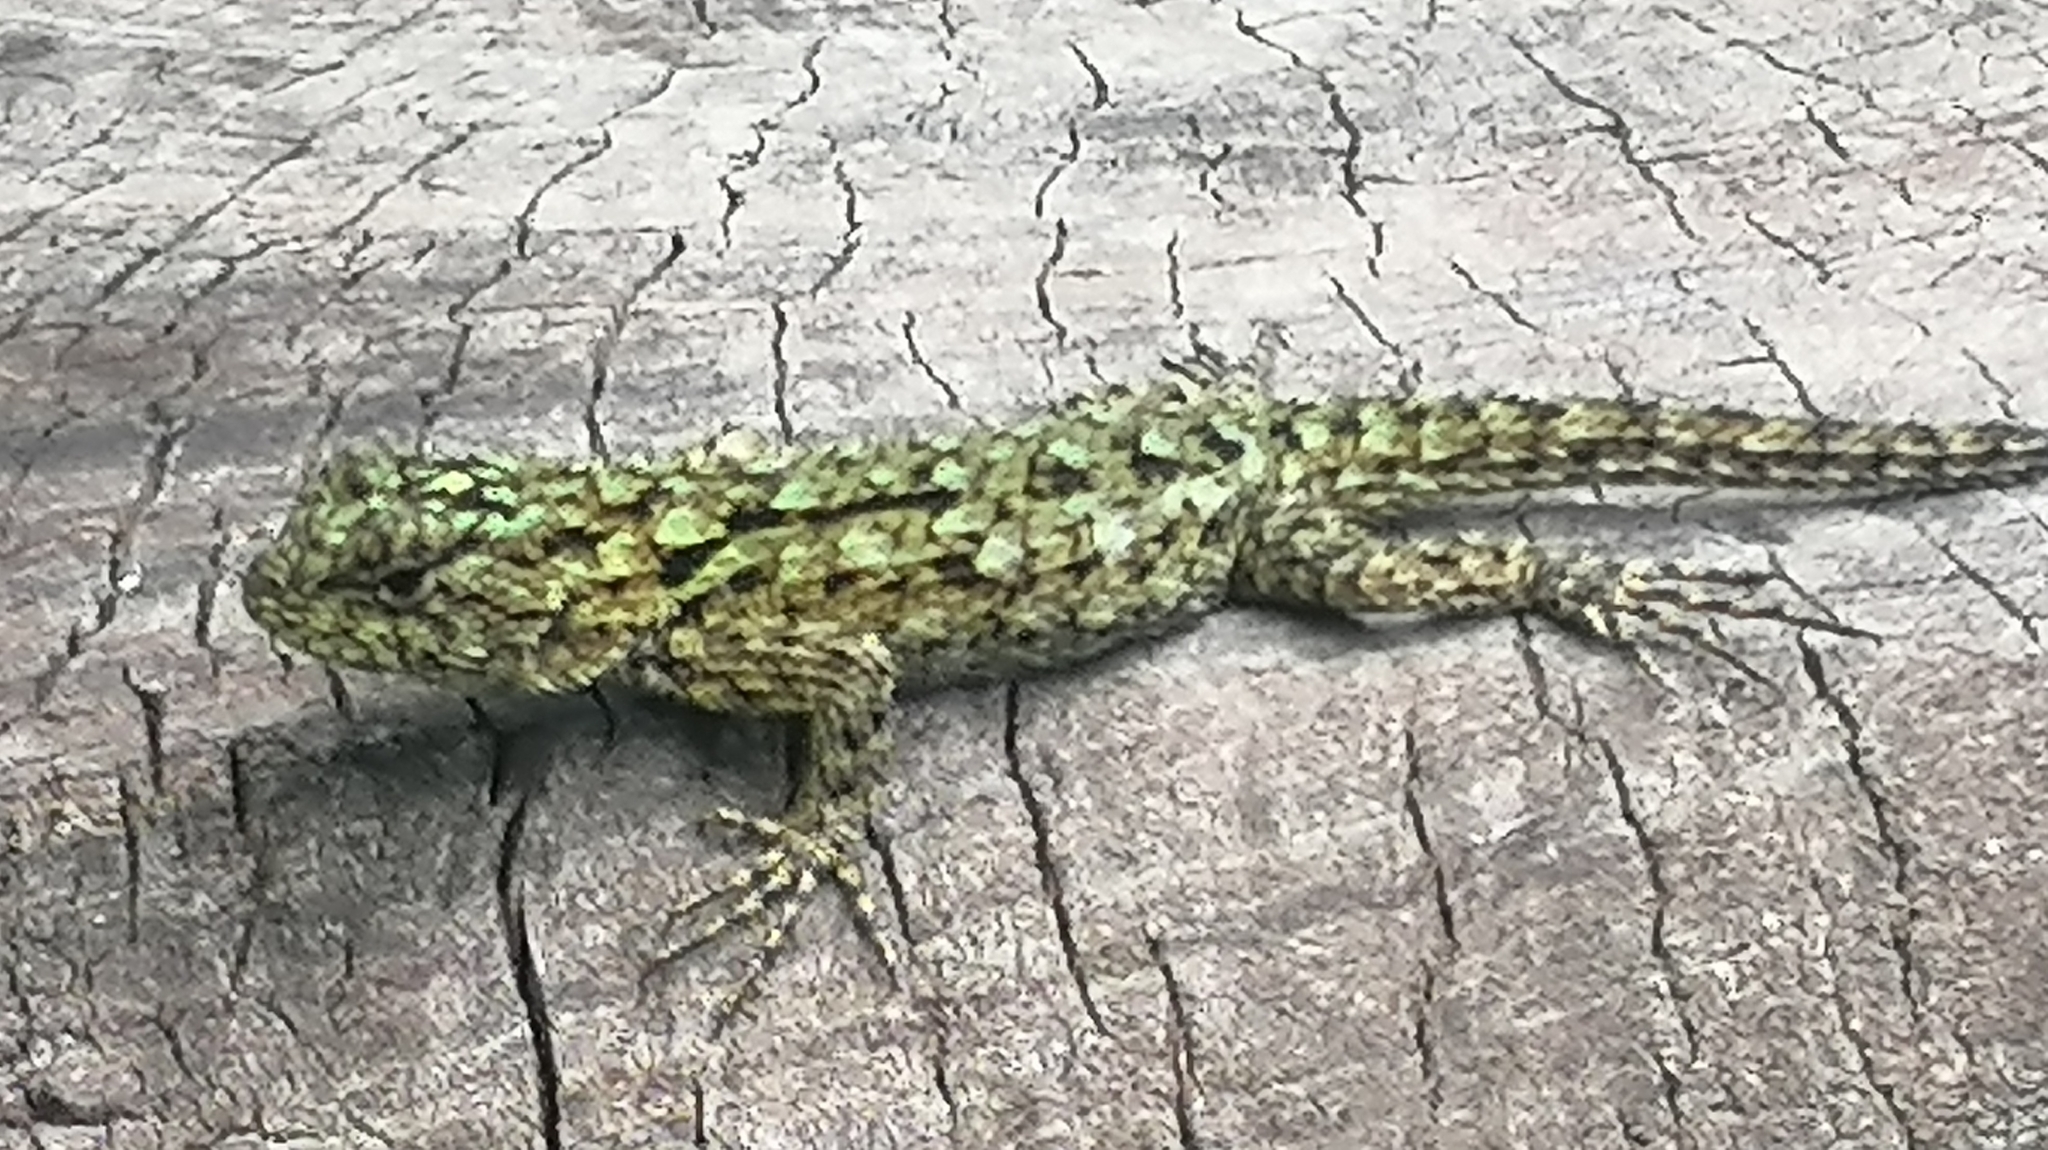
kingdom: Animalia
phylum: Chordata
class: Squamata
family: Phrynosomatidae
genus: Sceloporus
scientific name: Sceloporus malachiticus
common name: Green spiny lizard
